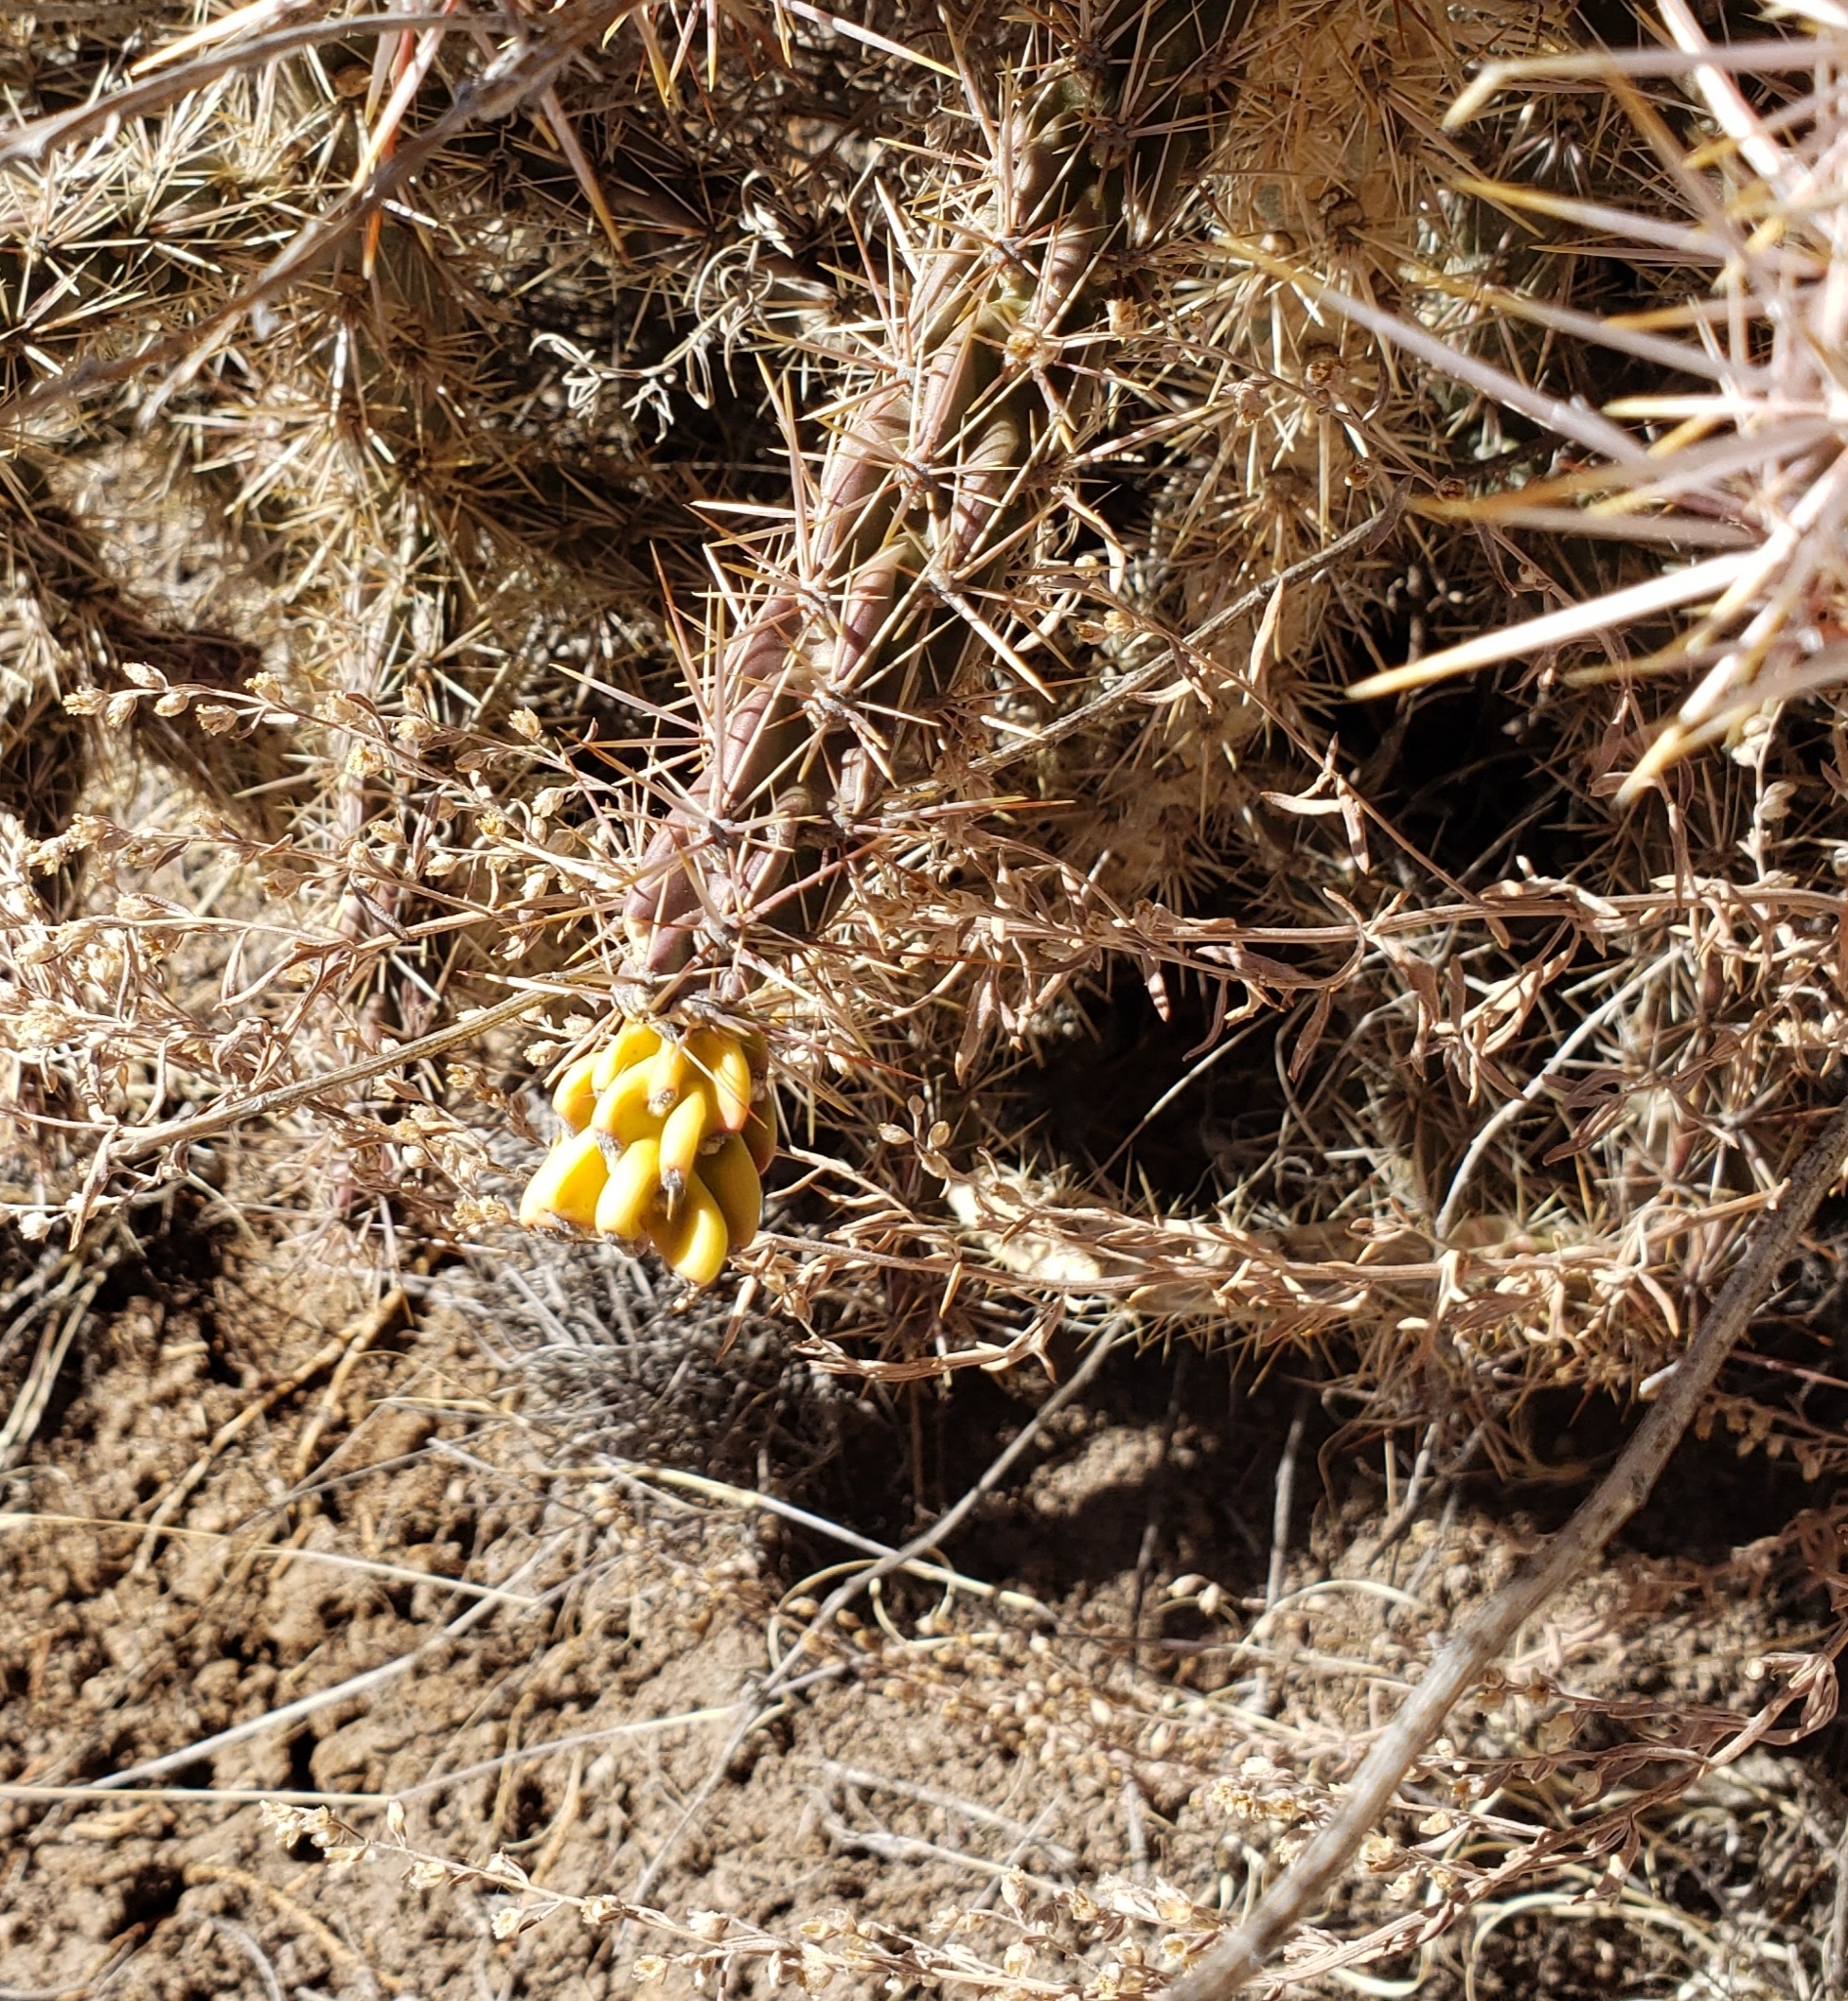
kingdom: Plantae
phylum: Tracheophyta
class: Magnoliopsida
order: Caryophyllales
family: Cactaceae
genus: Cylindropuntia
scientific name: Cylindropuntia imbricata
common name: Candelabrum cactus
